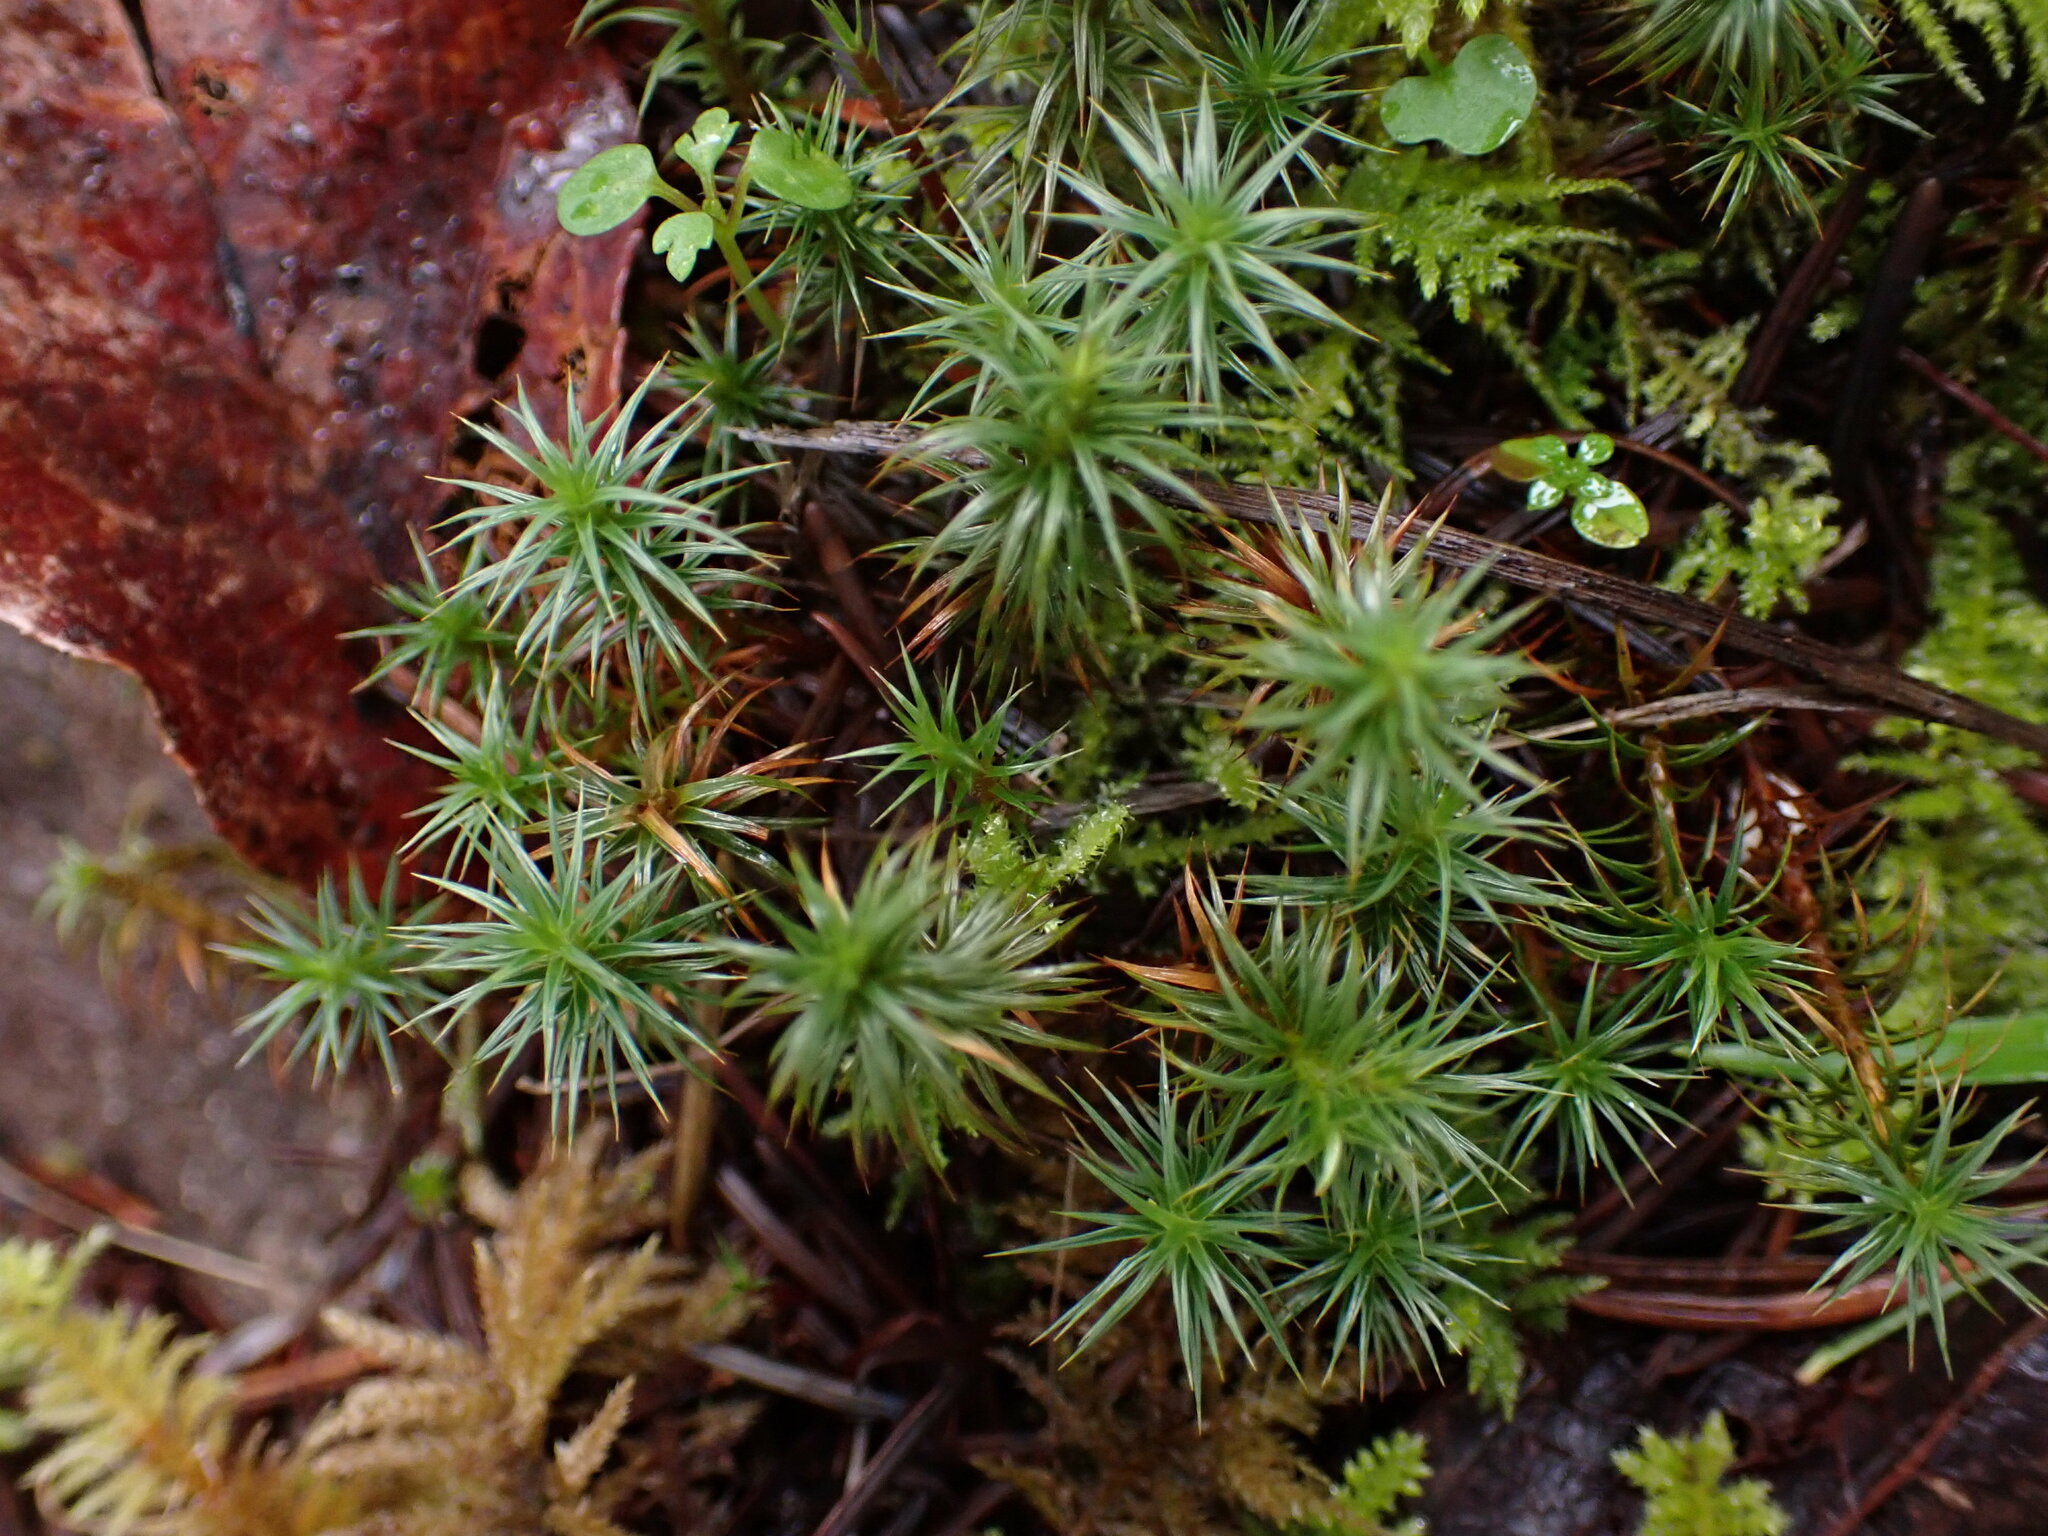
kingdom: Plantae
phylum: Bryophyta
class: Polytrichopsida
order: Polytrichales
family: Polytrichaceae
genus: Polytrichum
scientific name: Polytrichum juniperinum
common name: Juniper haircap moss
